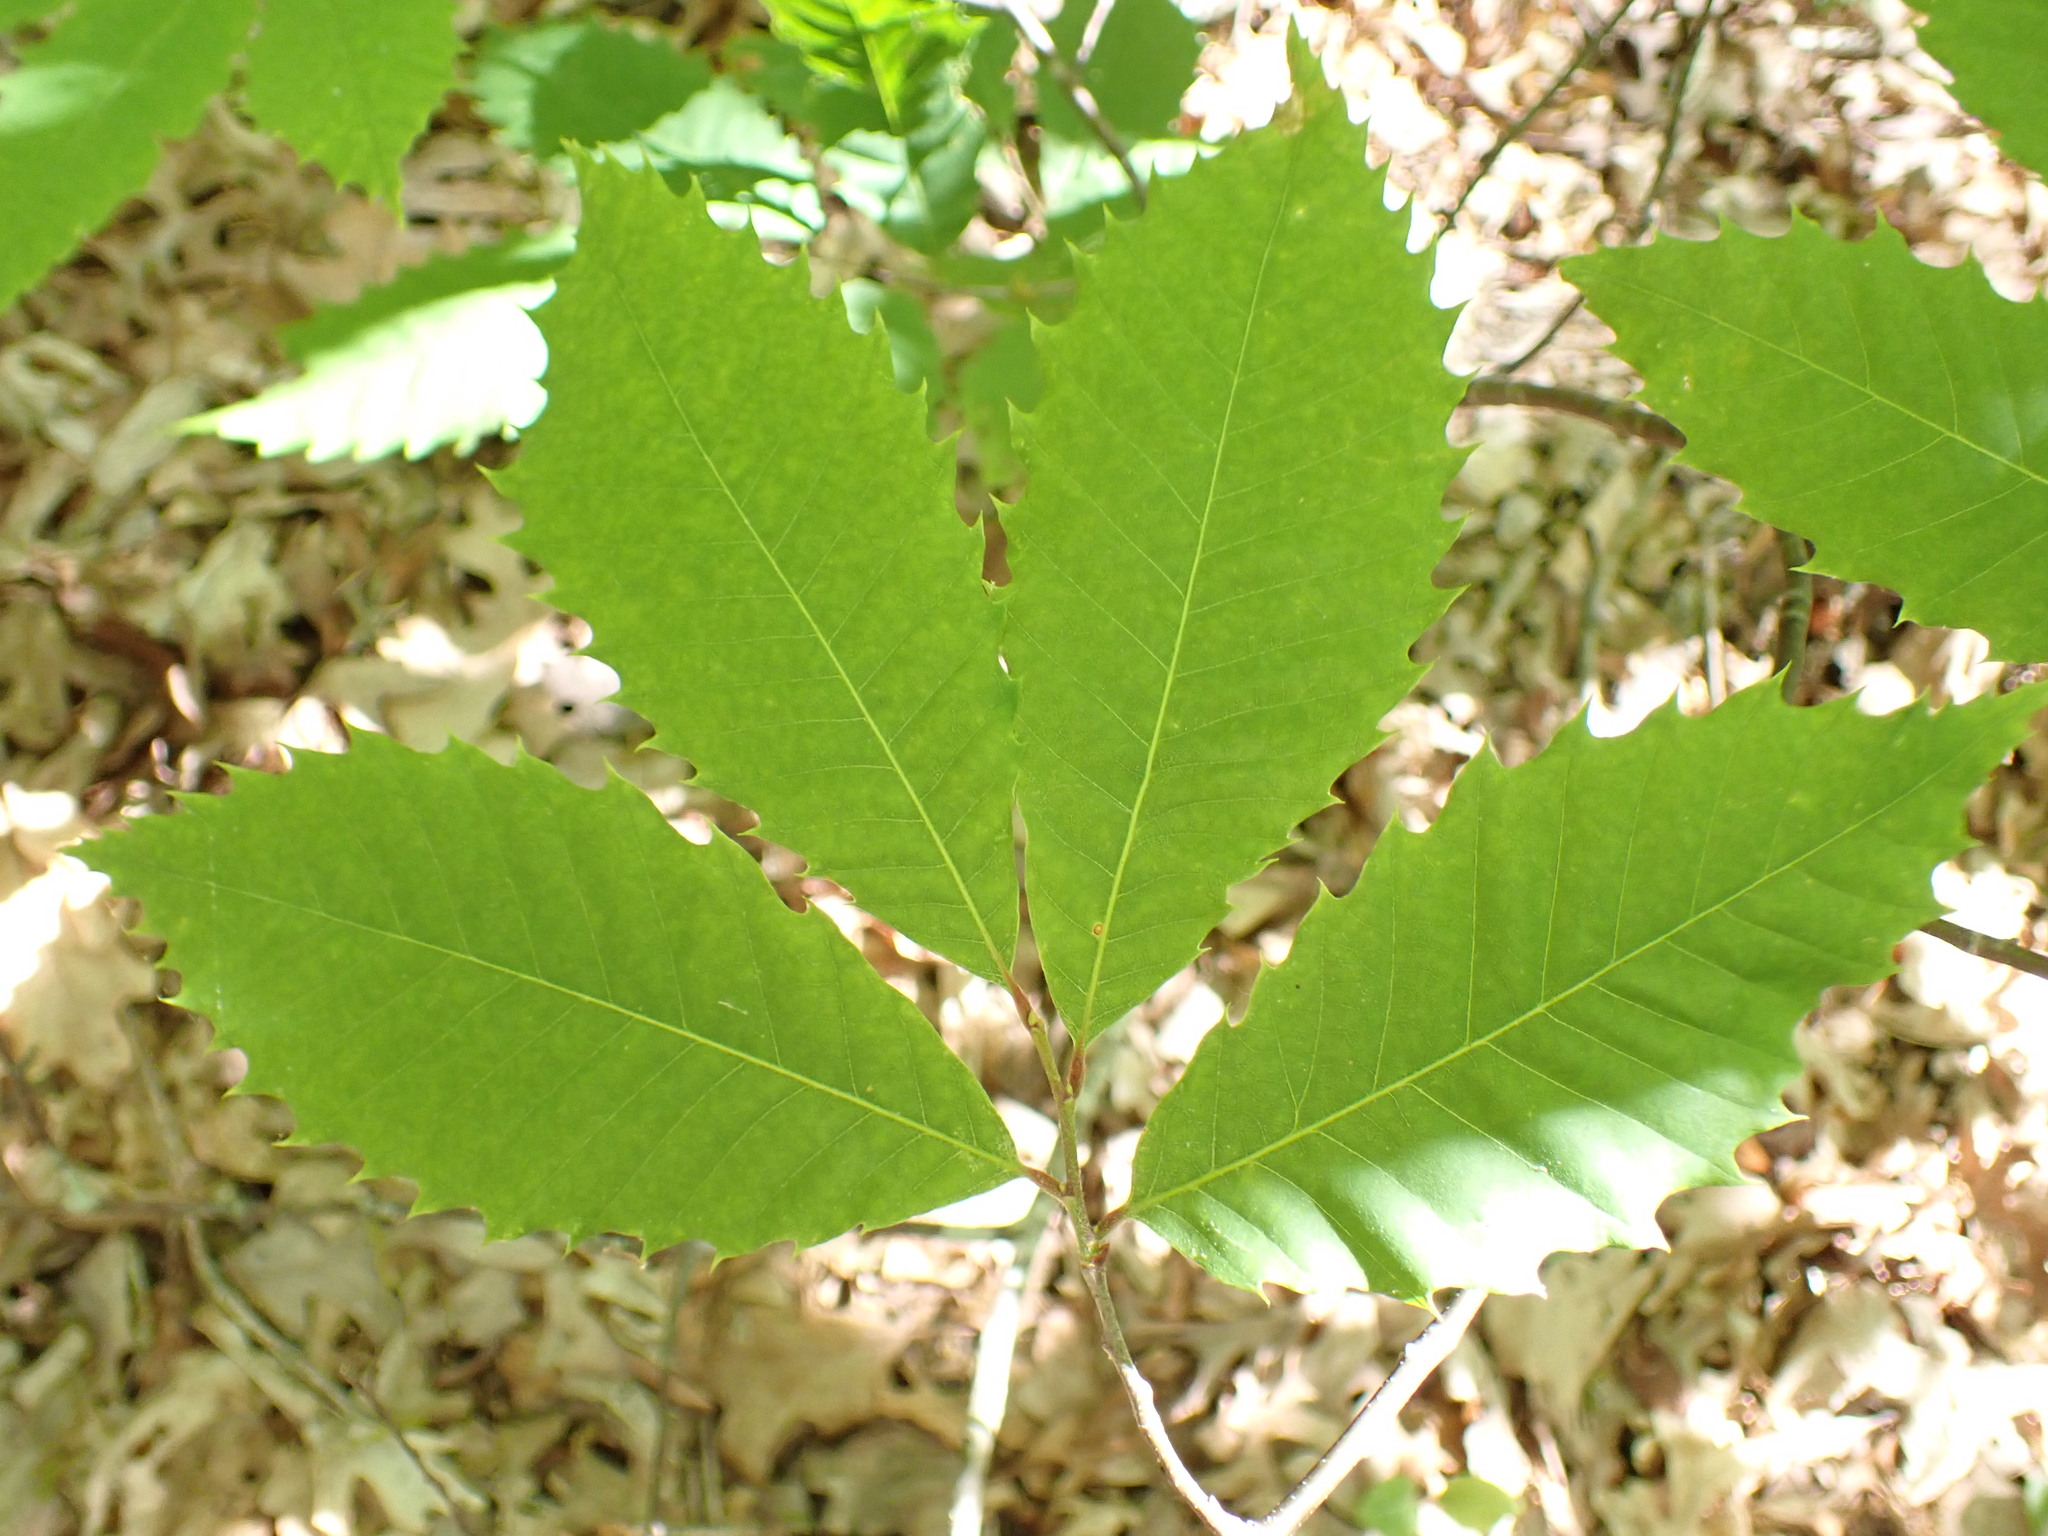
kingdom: Plantae
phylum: Tracheophyta
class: Magnoliopsida
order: Fagales
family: Fagaceae
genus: Castanea
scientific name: Castanea dentata
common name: American chestnut
